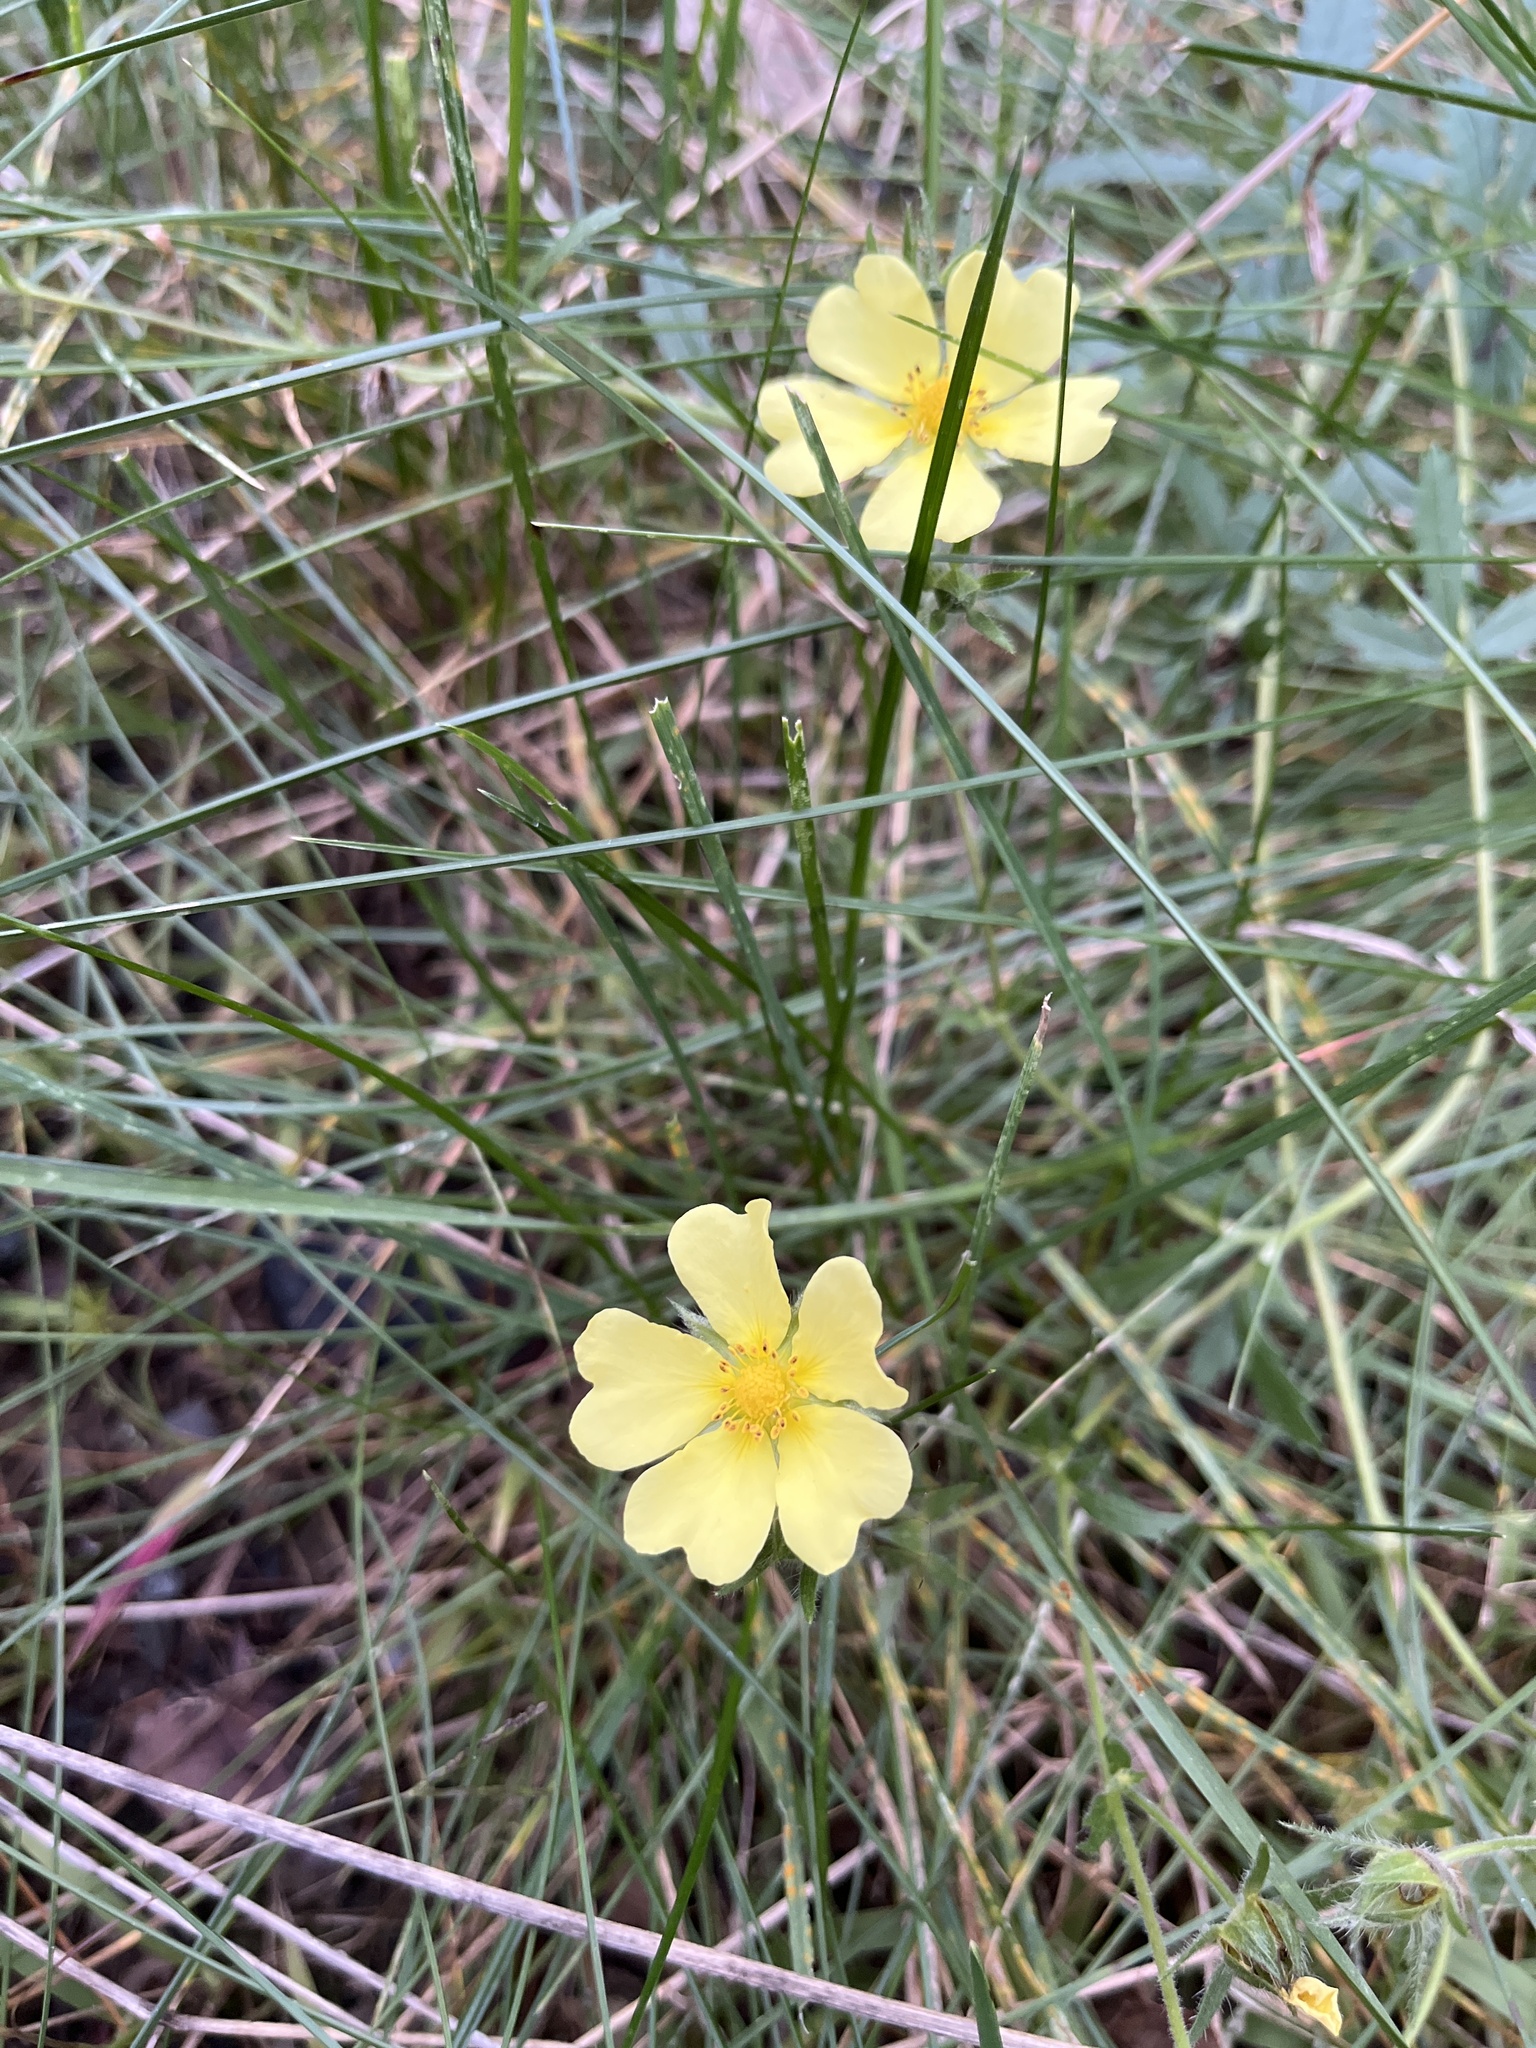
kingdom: Plantae
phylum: Tracheophyta
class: Magnoliopsida
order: Rosales
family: Rosaceae
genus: Potentilla
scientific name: Potentilla recta
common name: Sulphur cinquefoil
